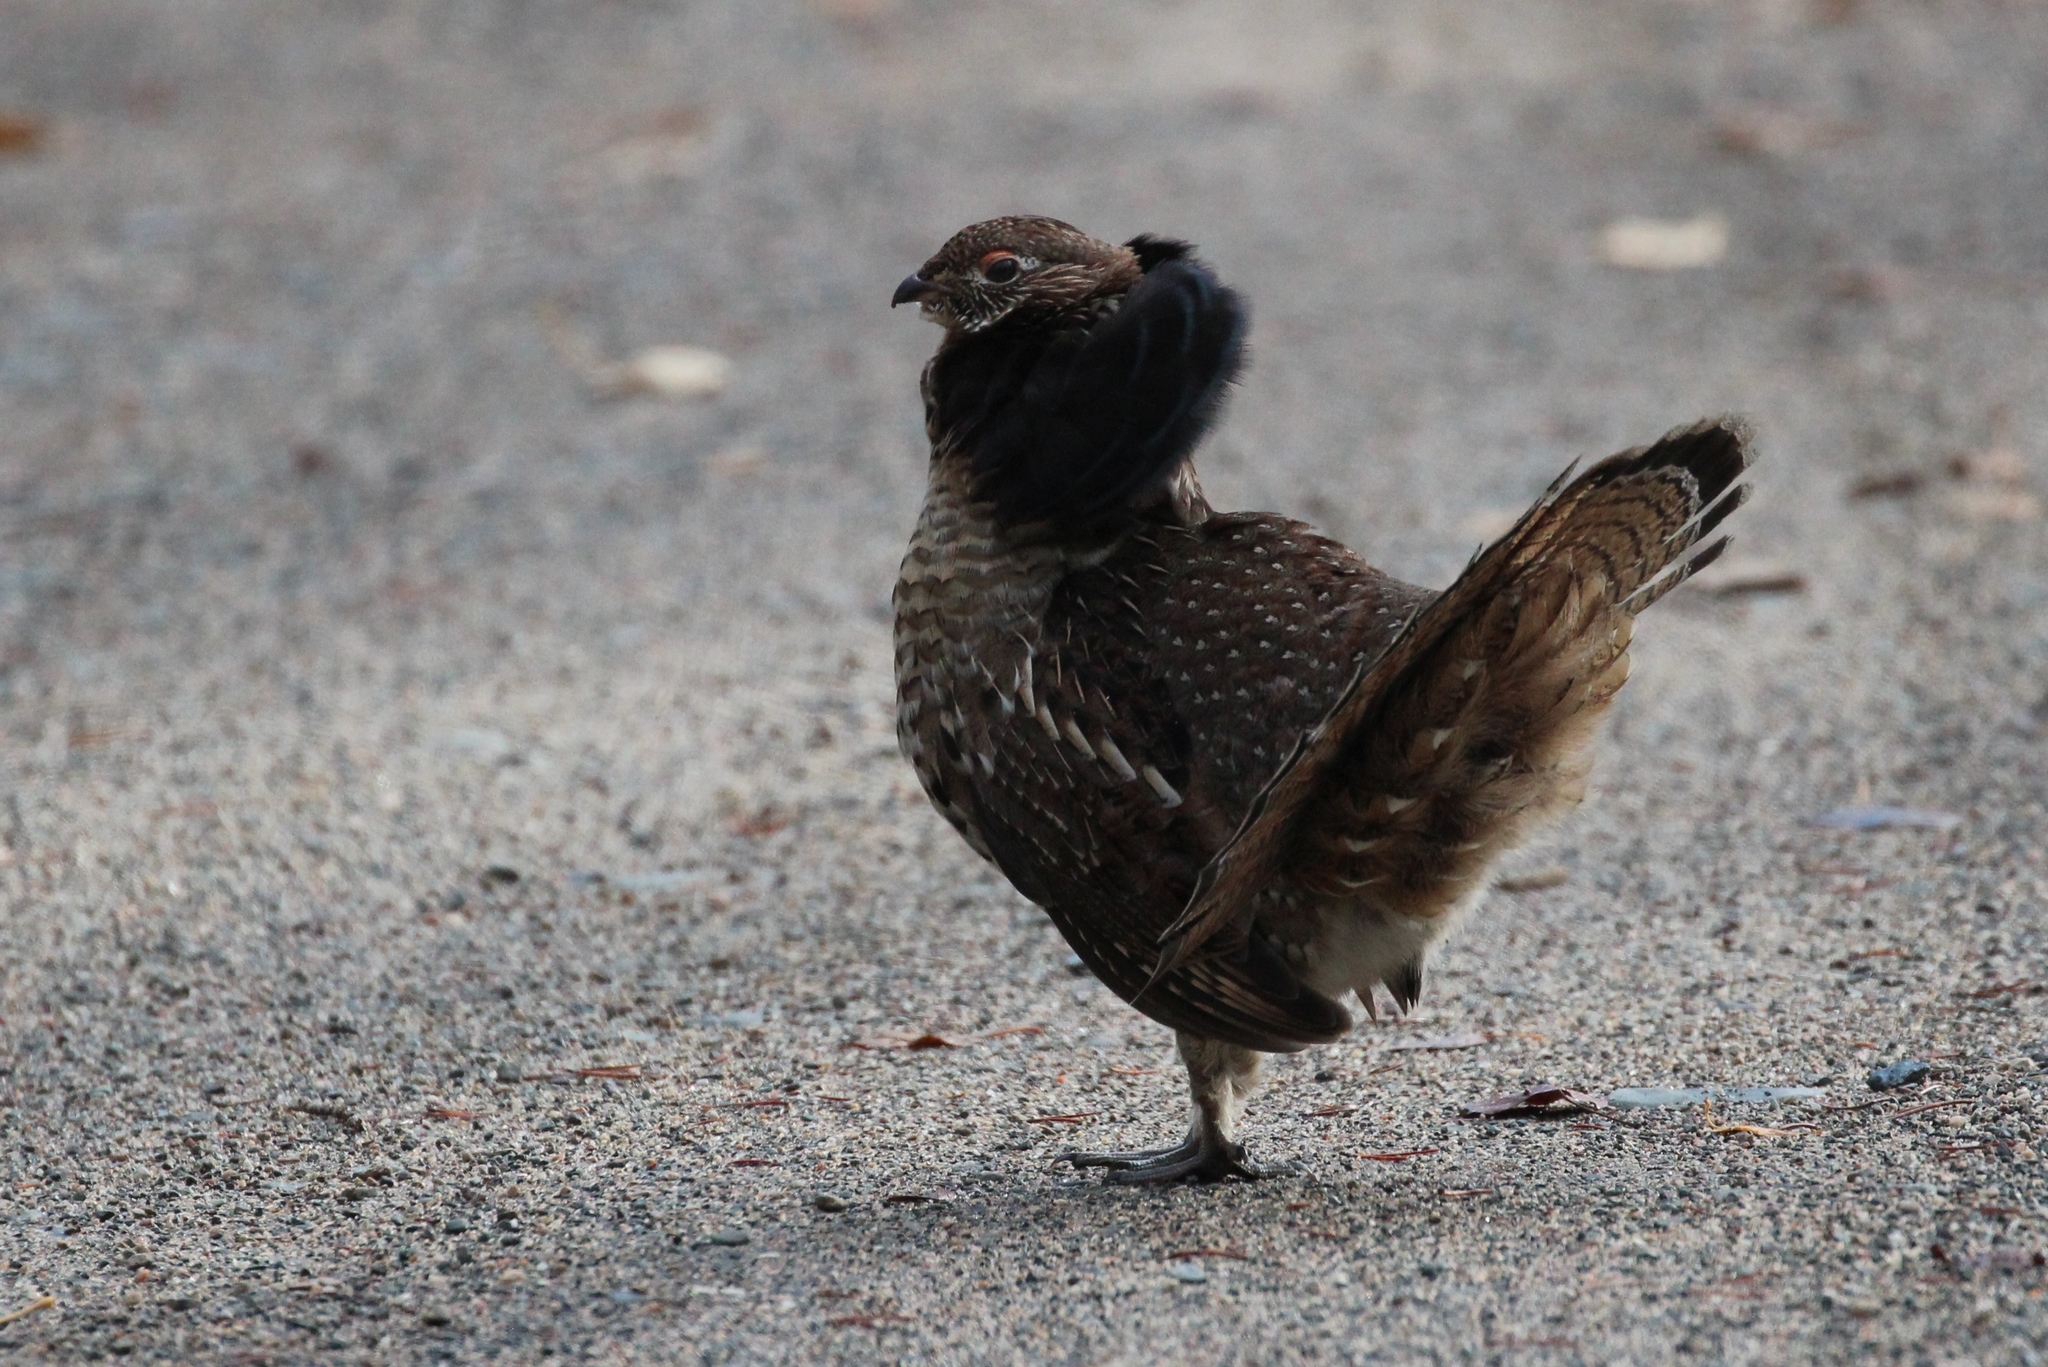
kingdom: Animalia
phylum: Chordata
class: Aves
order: Galliformes
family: Phasianidae
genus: Bonasa
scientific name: Bonasa umbellus
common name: Ruffed grouse
